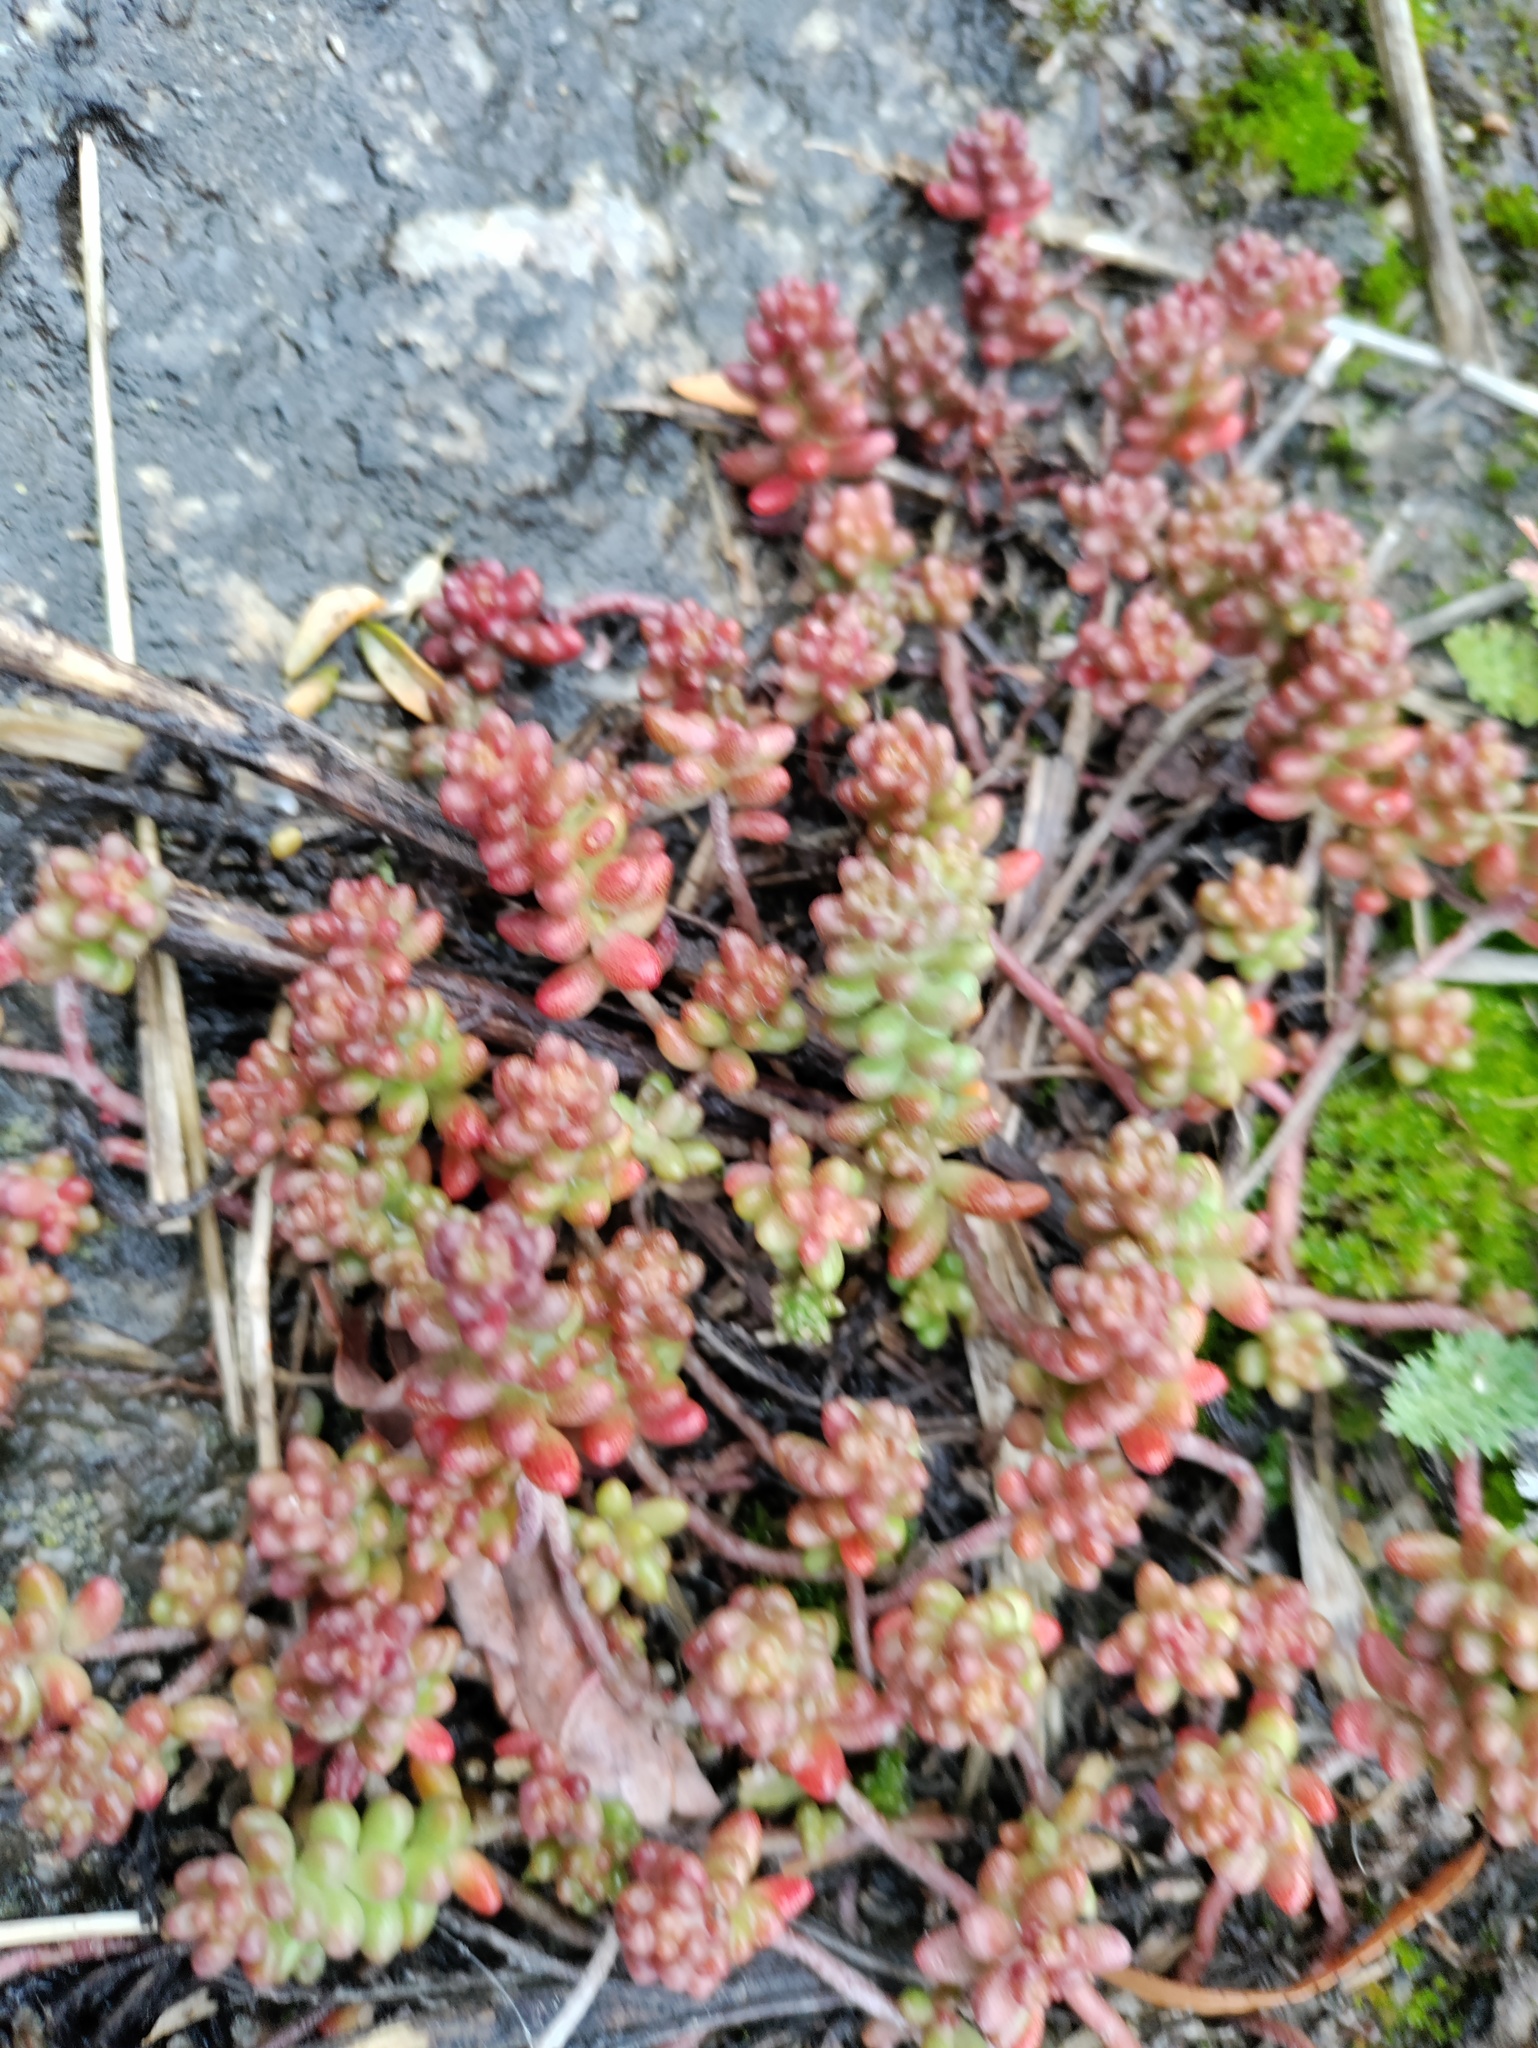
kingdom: Plantae
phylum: Tracheophyta
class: Magnoliopsida
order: Saxifragales
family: Crassulaceae
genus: Sedum
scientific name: Sedum album
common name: White stonecrop
